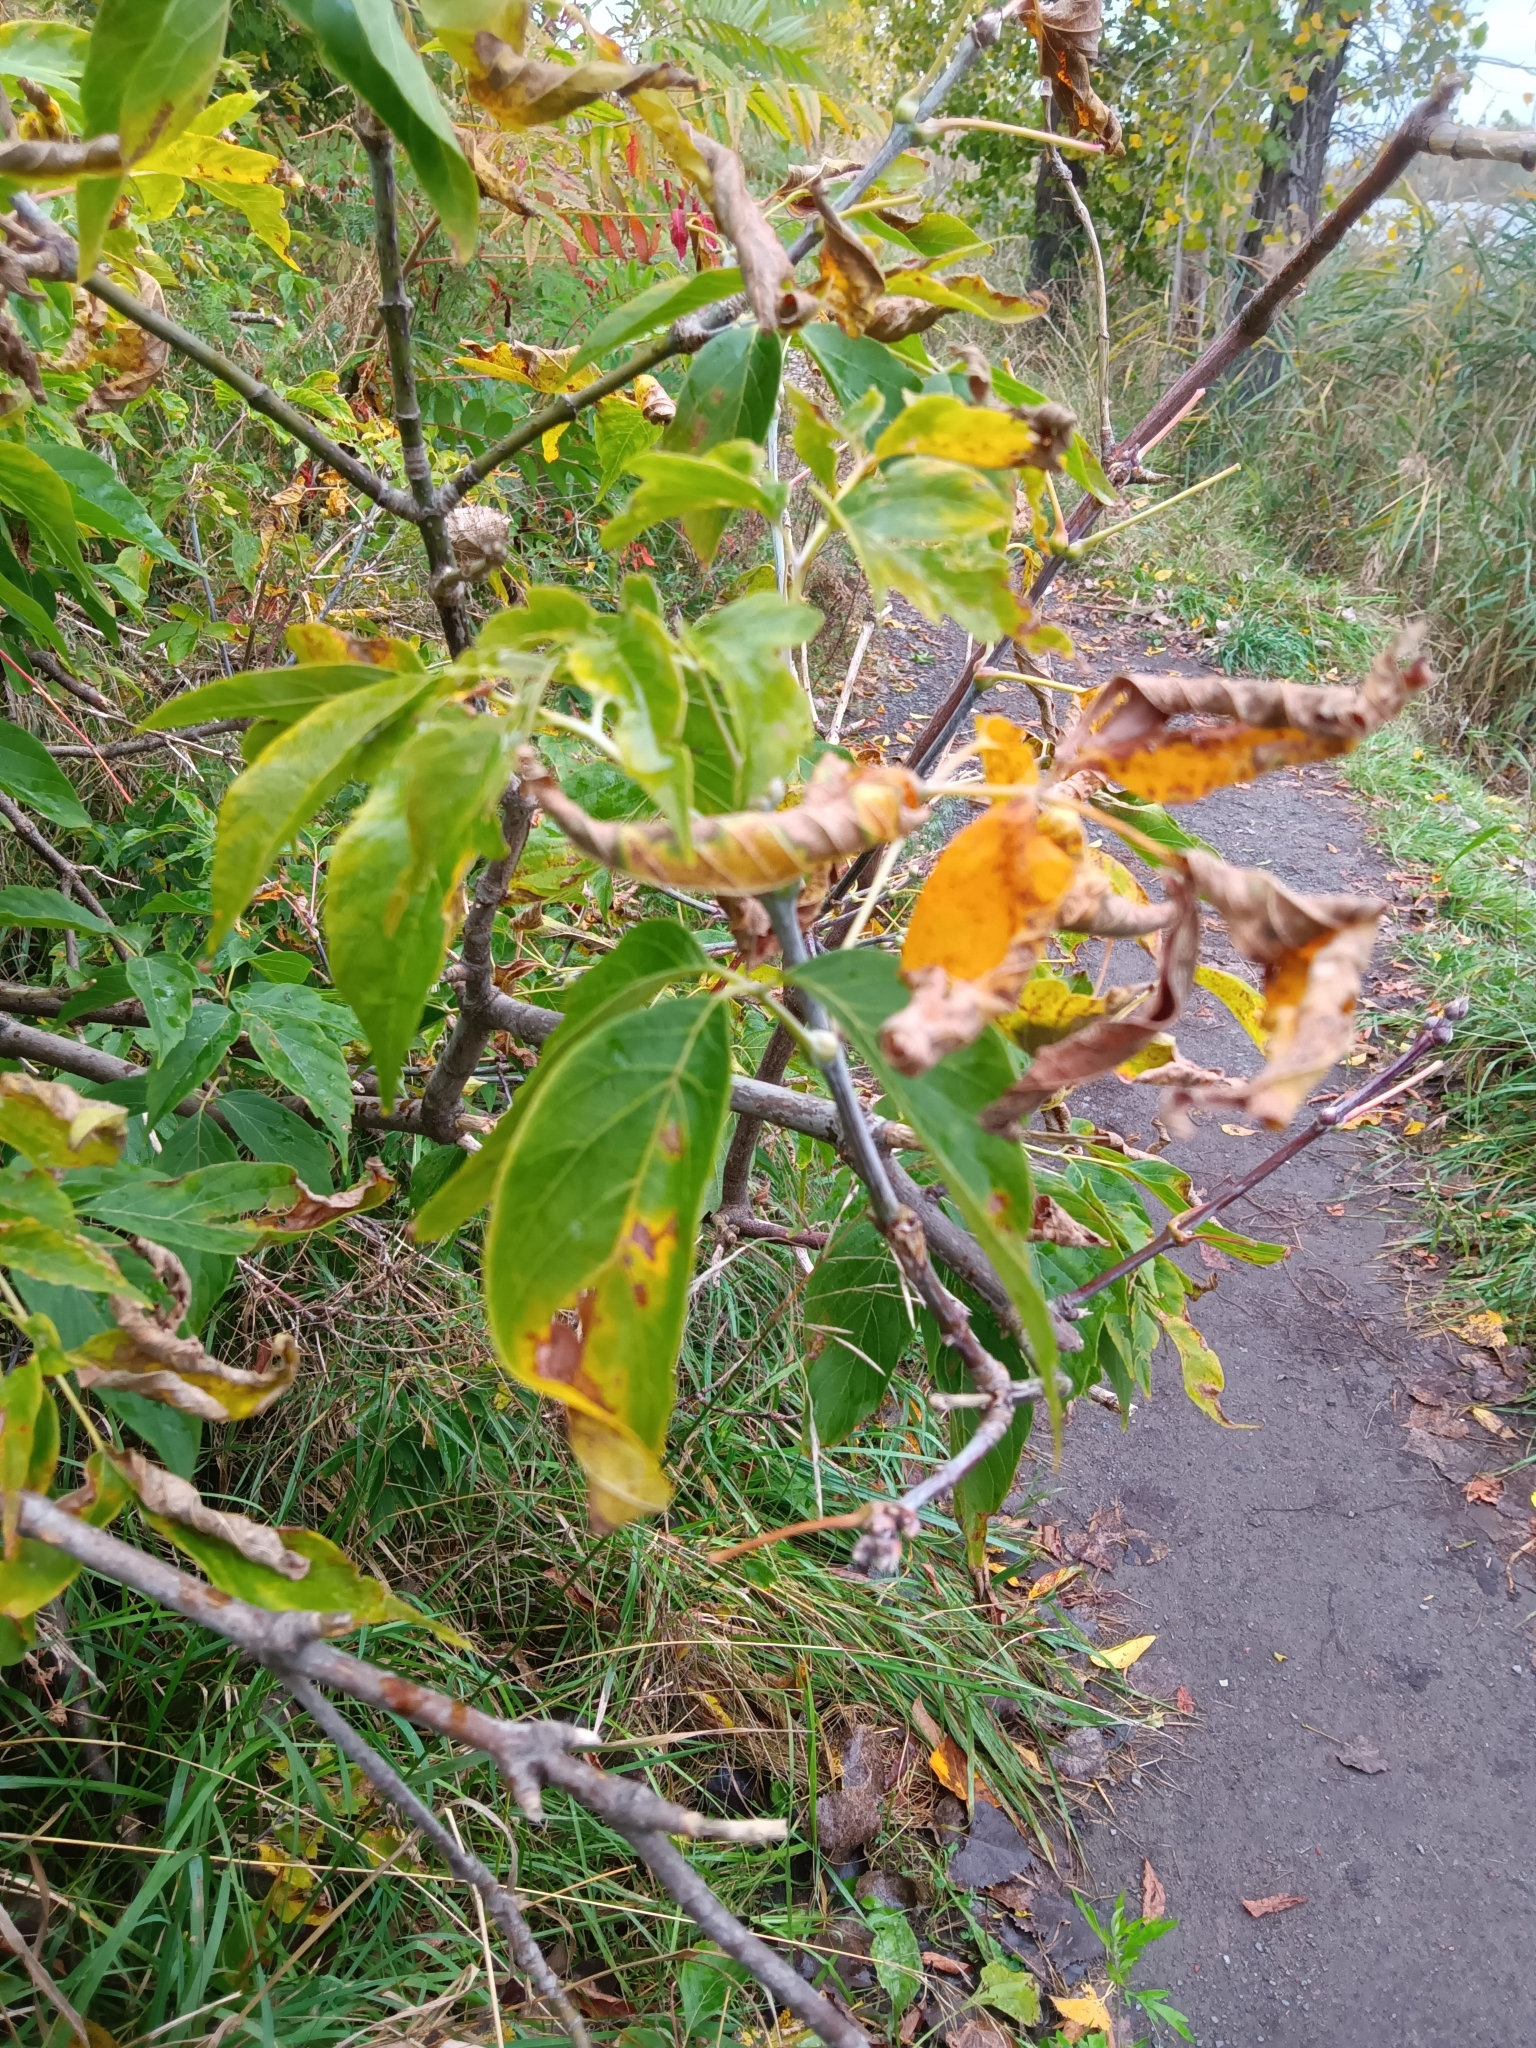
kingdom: Plantae
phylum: Tracheophyta
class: Magnoliopsida
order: Sapindales
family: Sapindaceae
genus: Acer
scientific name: Acer negundo
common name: Ashleaf maple
